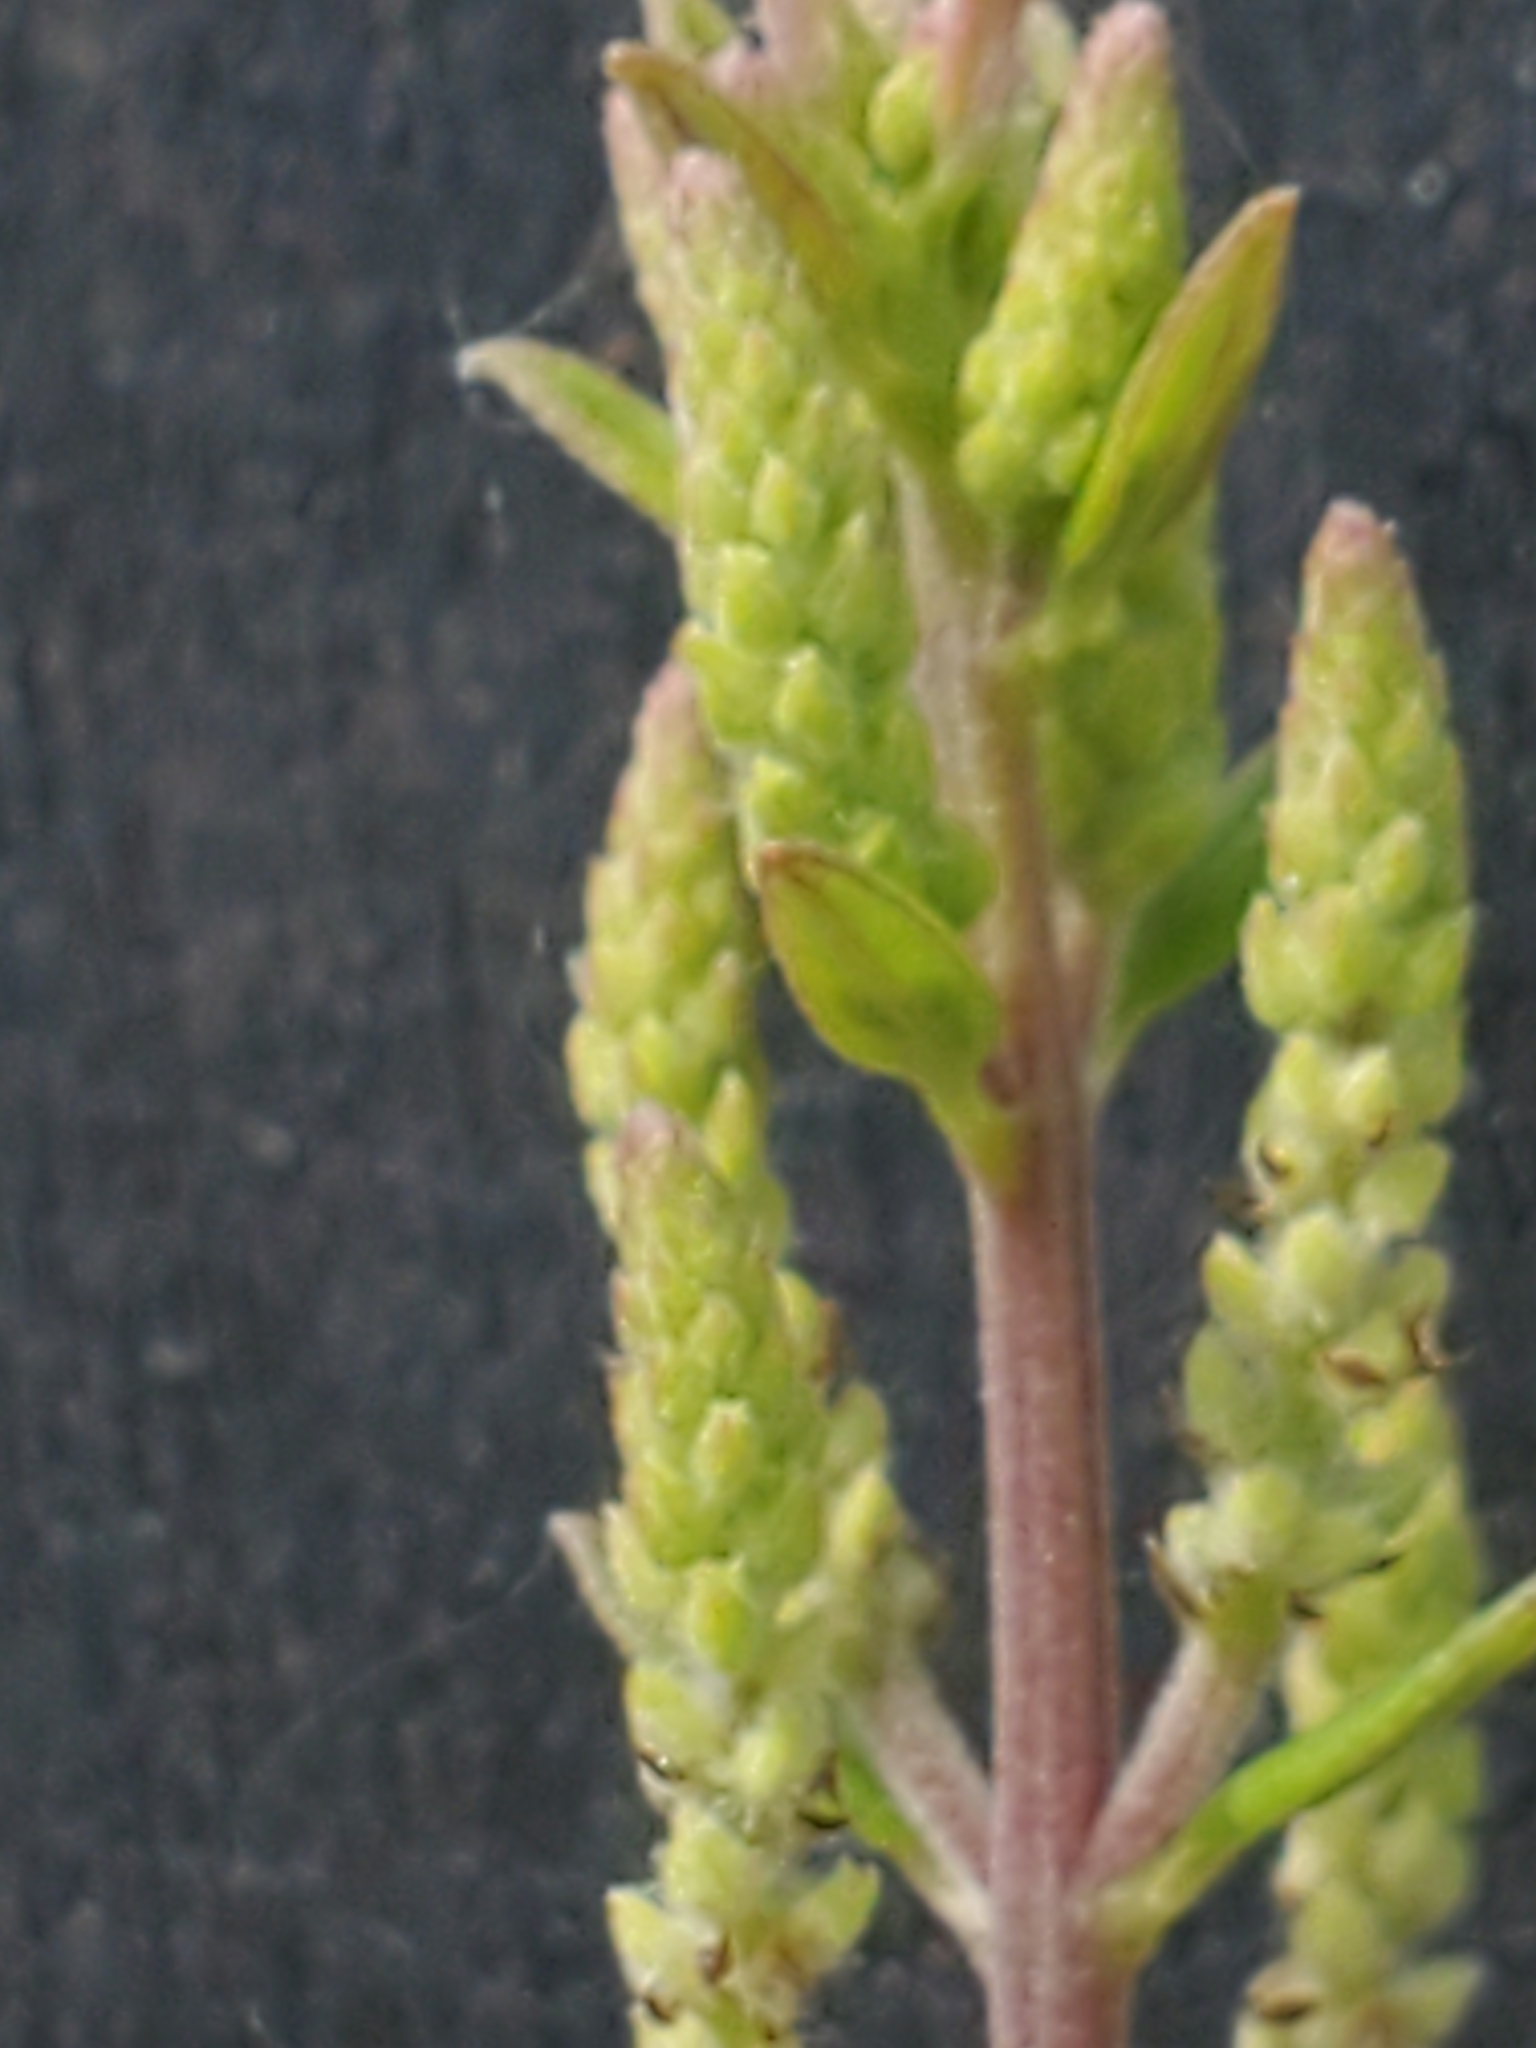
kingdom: Plantae
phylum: Tracheophyta
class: Magnoliopsida
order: Lamiales
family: Verbenaceae
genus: Aloysia
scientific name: Aloysia gratissima
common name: Common bee-brush
